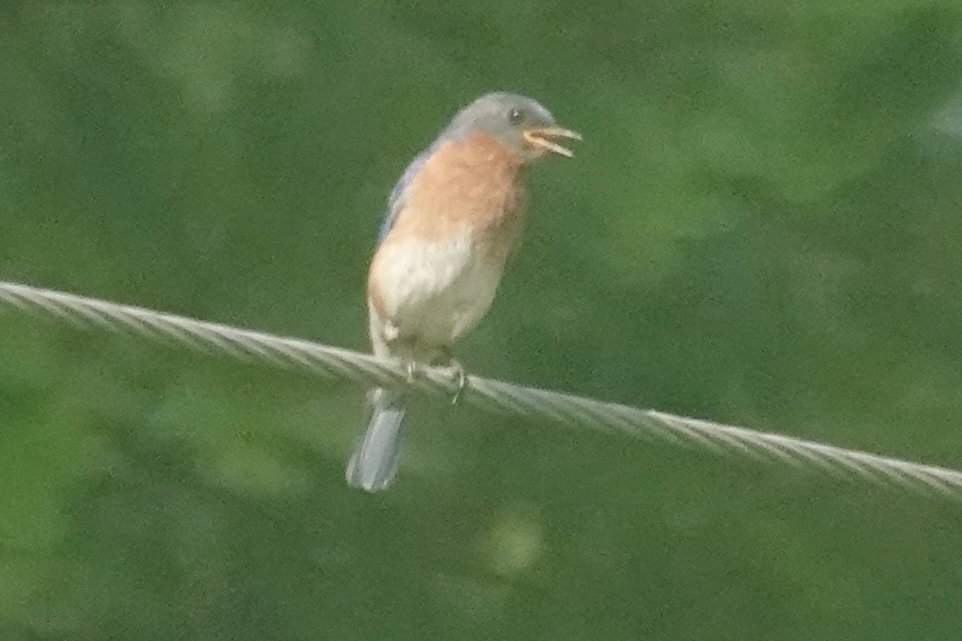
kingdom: Animalia
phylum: Chordata
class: Aves
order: Passeriformes
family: Turdidae
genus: Sialia
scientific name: Sialia sialis
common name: Eastern bluebird
